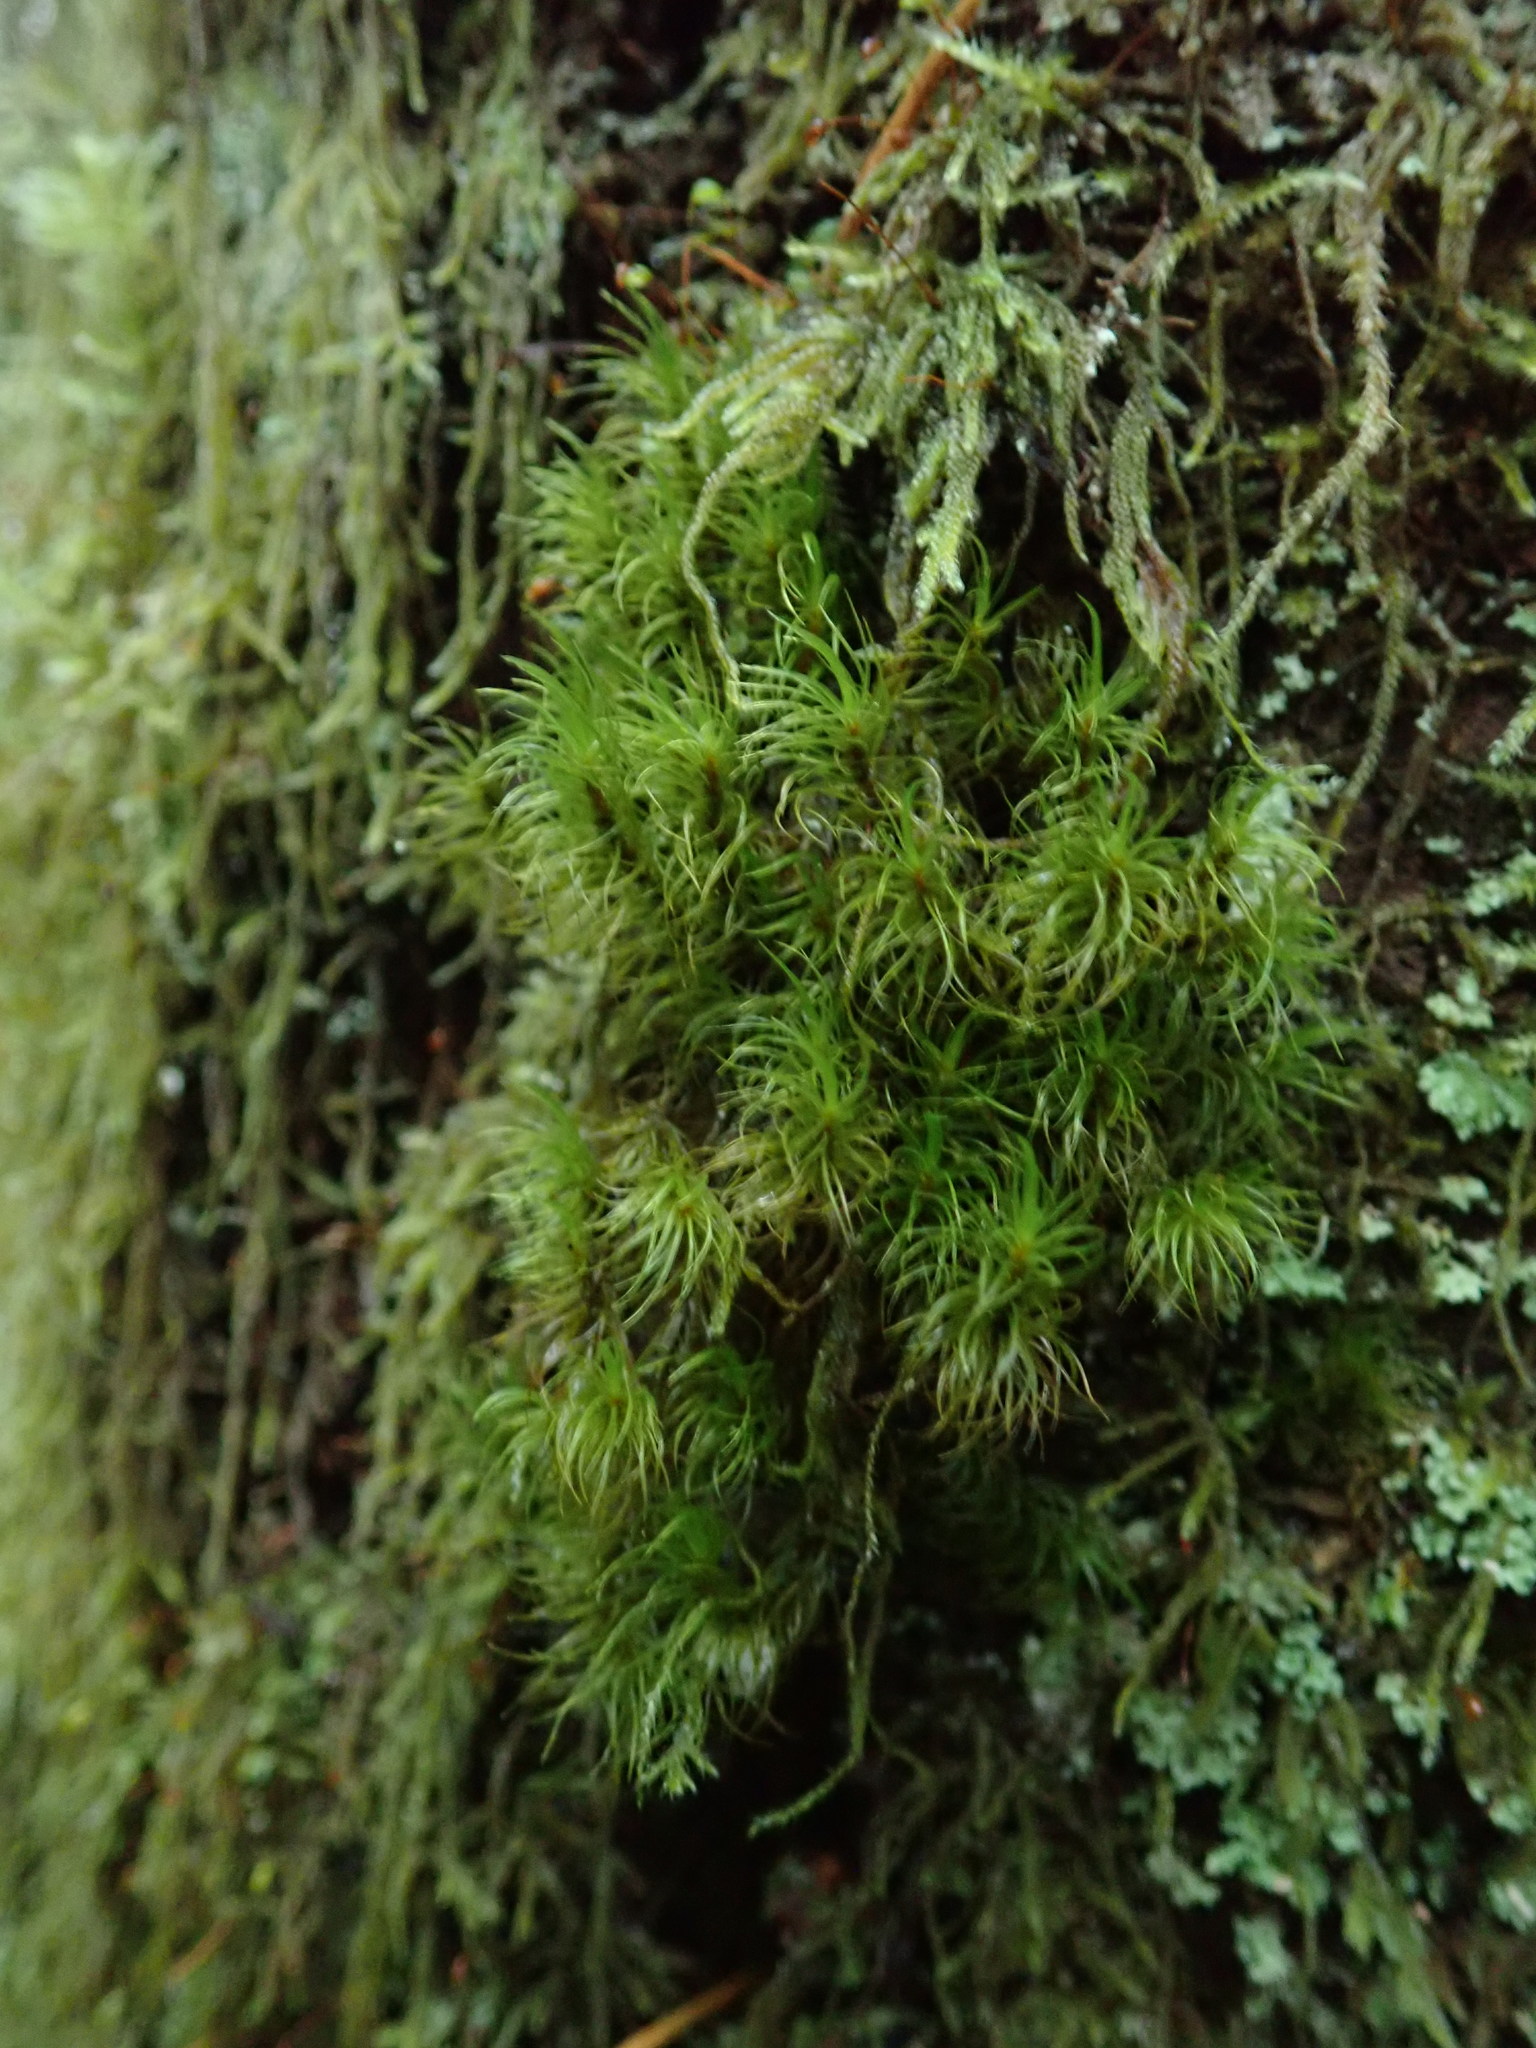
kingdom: Plantae
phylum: Bryophyta
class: Bryopsida
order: Dicranales
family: Dicranaceae
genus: Dicranum
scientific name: Dicranum fuscescens
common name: Curly heron's-bill moss
